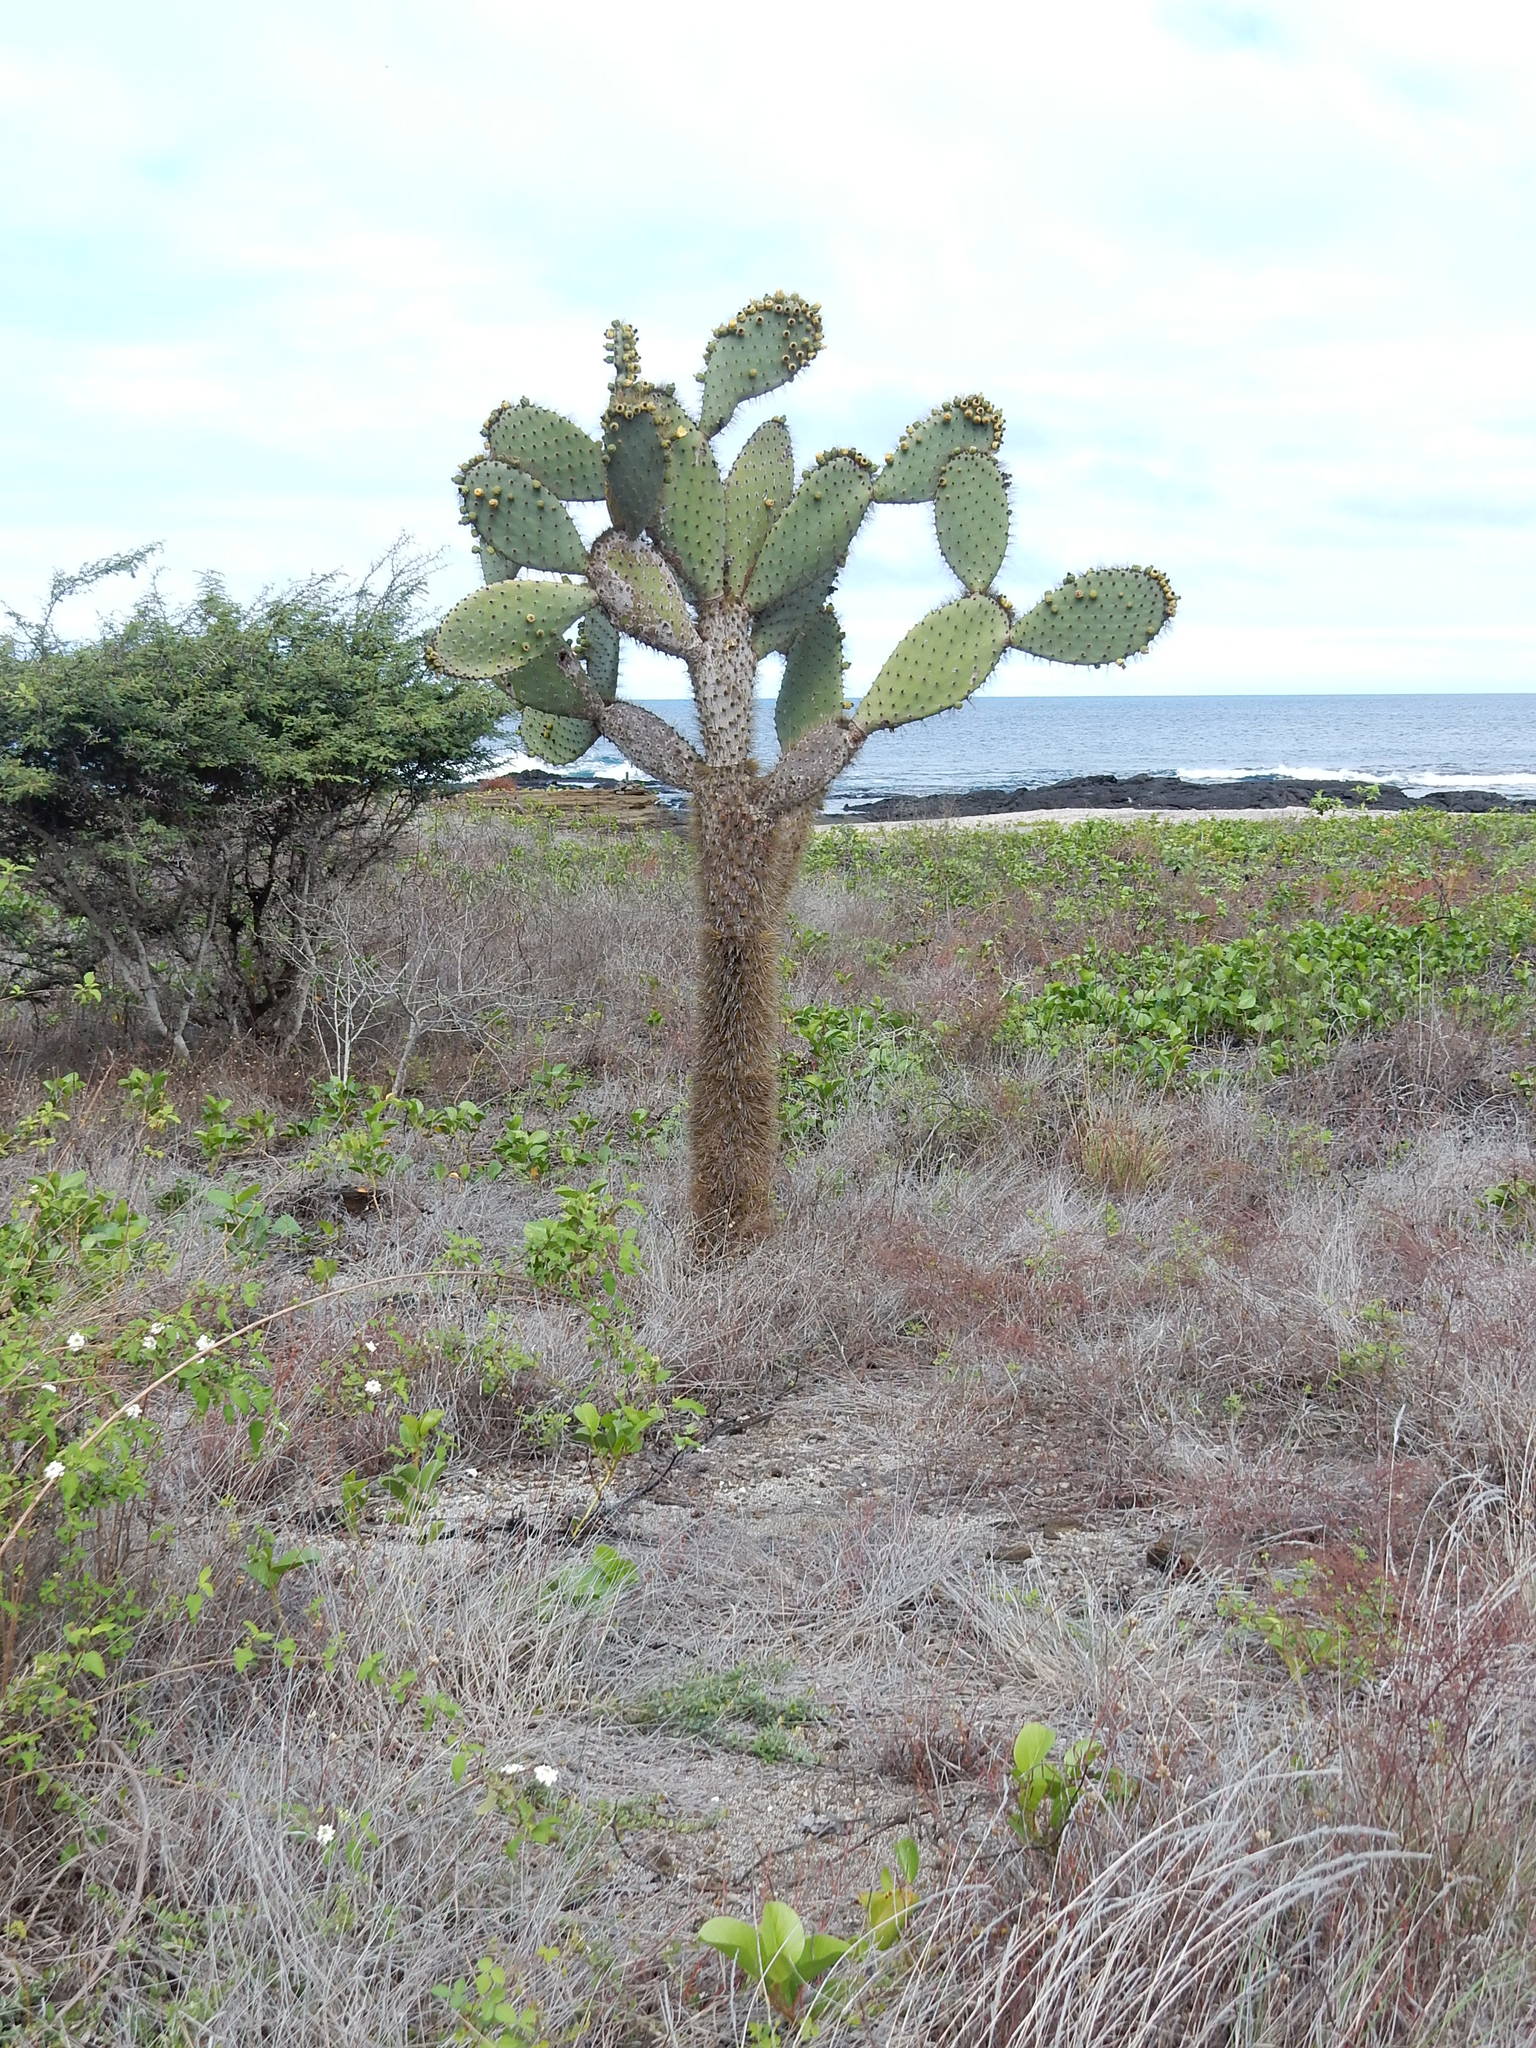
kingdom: Plantae
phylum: Tracheophyta
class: Magnoliopsida
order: Caryophyllales
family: Cactaceae
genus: Opuntia
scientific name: Opuntia galapageia
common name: Galápagos prickly pear
